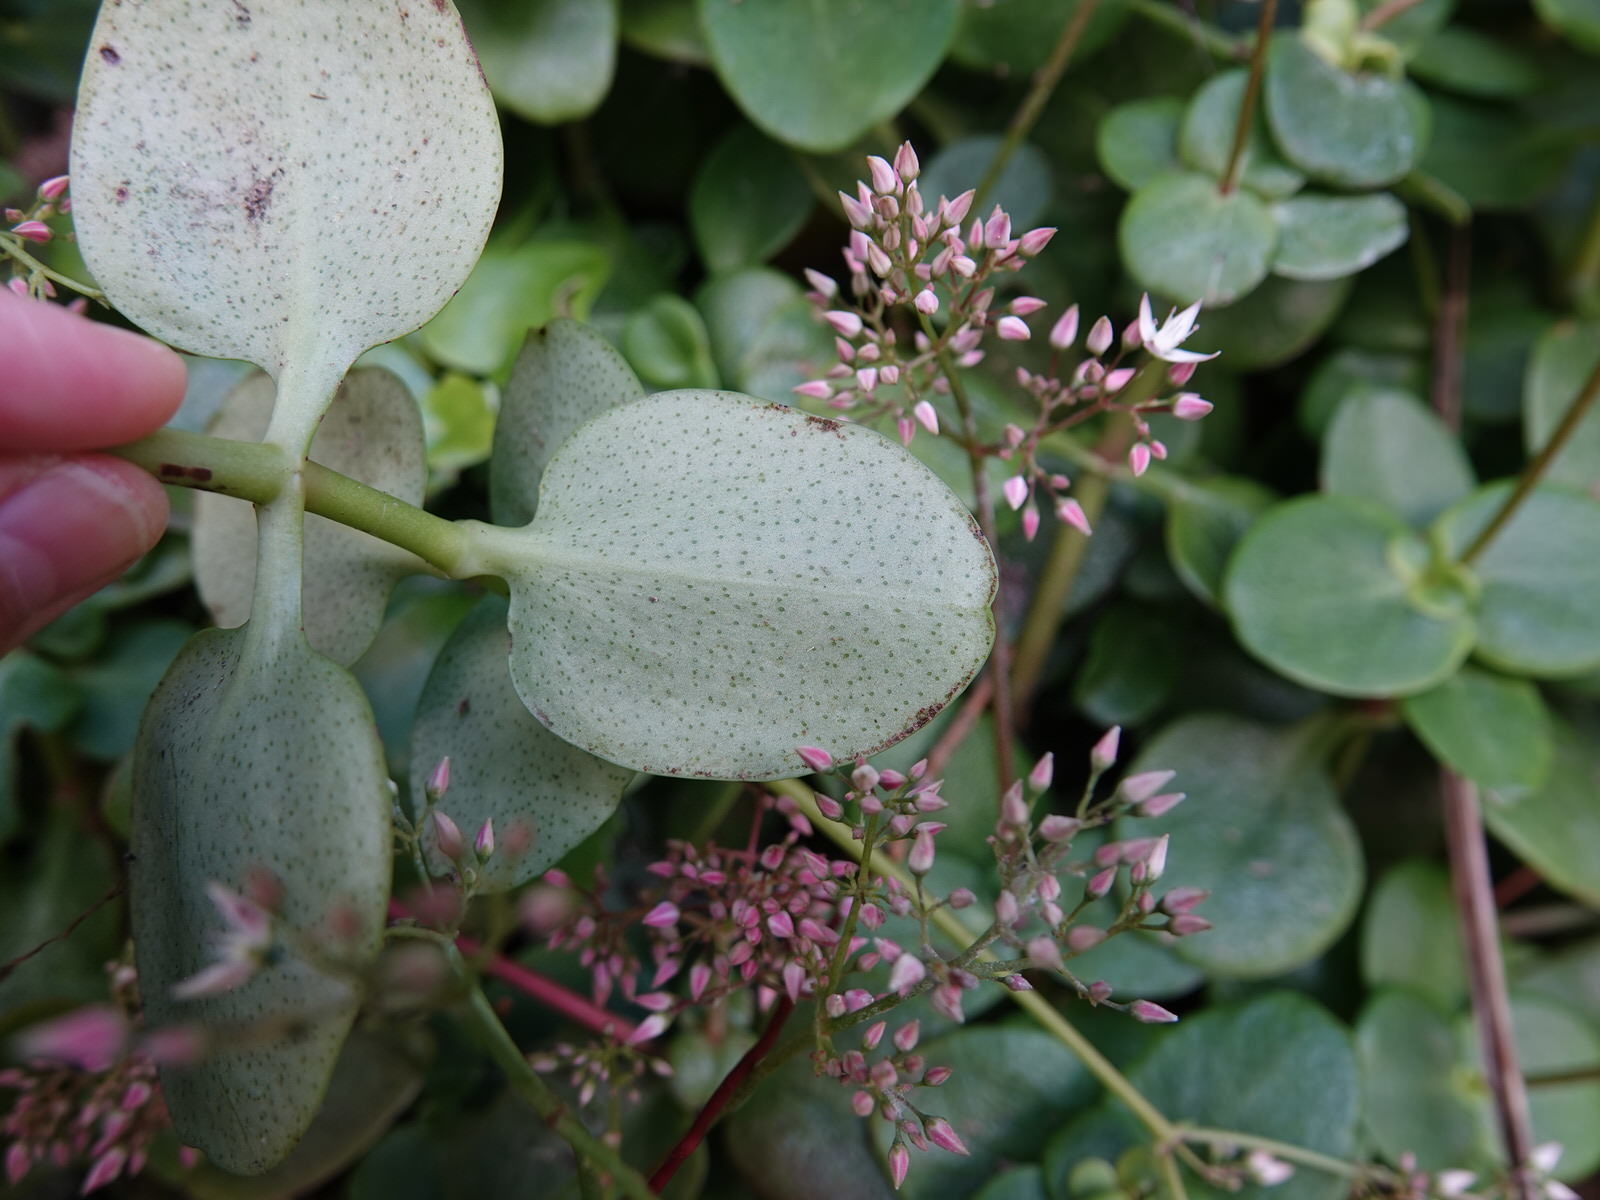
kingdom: Plantae
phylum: Tracheophyta
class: Magnoliopsida
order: Saxifragales
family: Crassulaceae
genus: Crassula
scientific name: Crassula multicava
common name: Cape province pygmyweed
